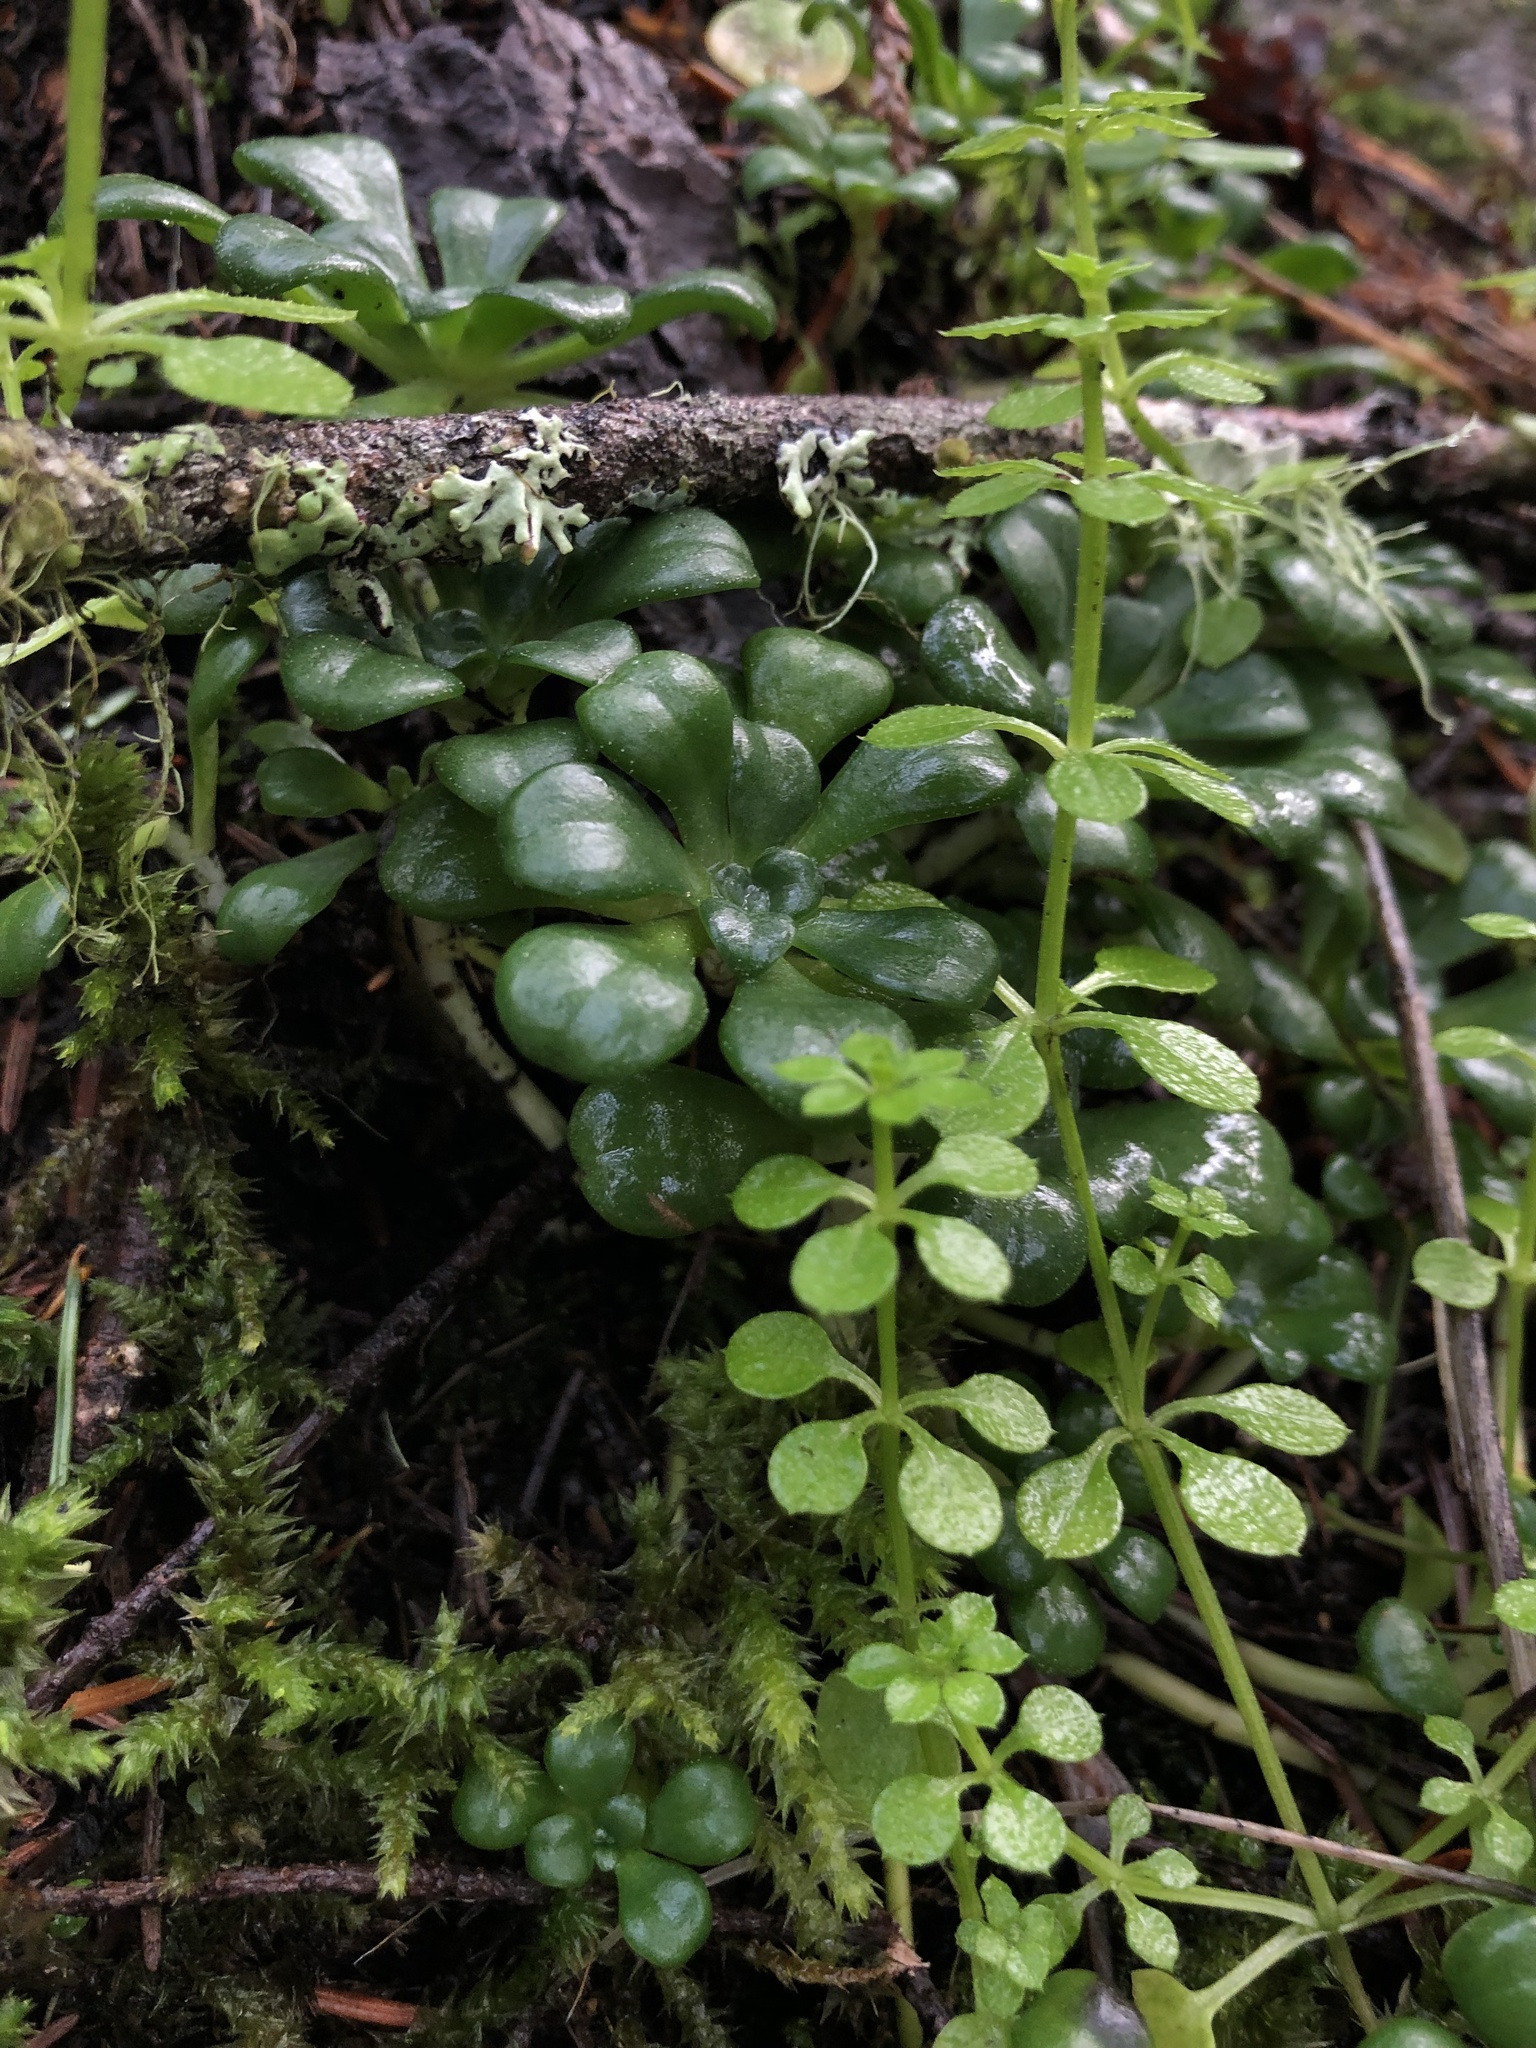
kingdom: Plantae
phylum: Tracheophyta
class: Magnoliopsida
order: Saxifragales
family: Crassulaceae
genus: Sedum
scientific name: Sedum spathulifolium
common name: Colorado stonecrop
